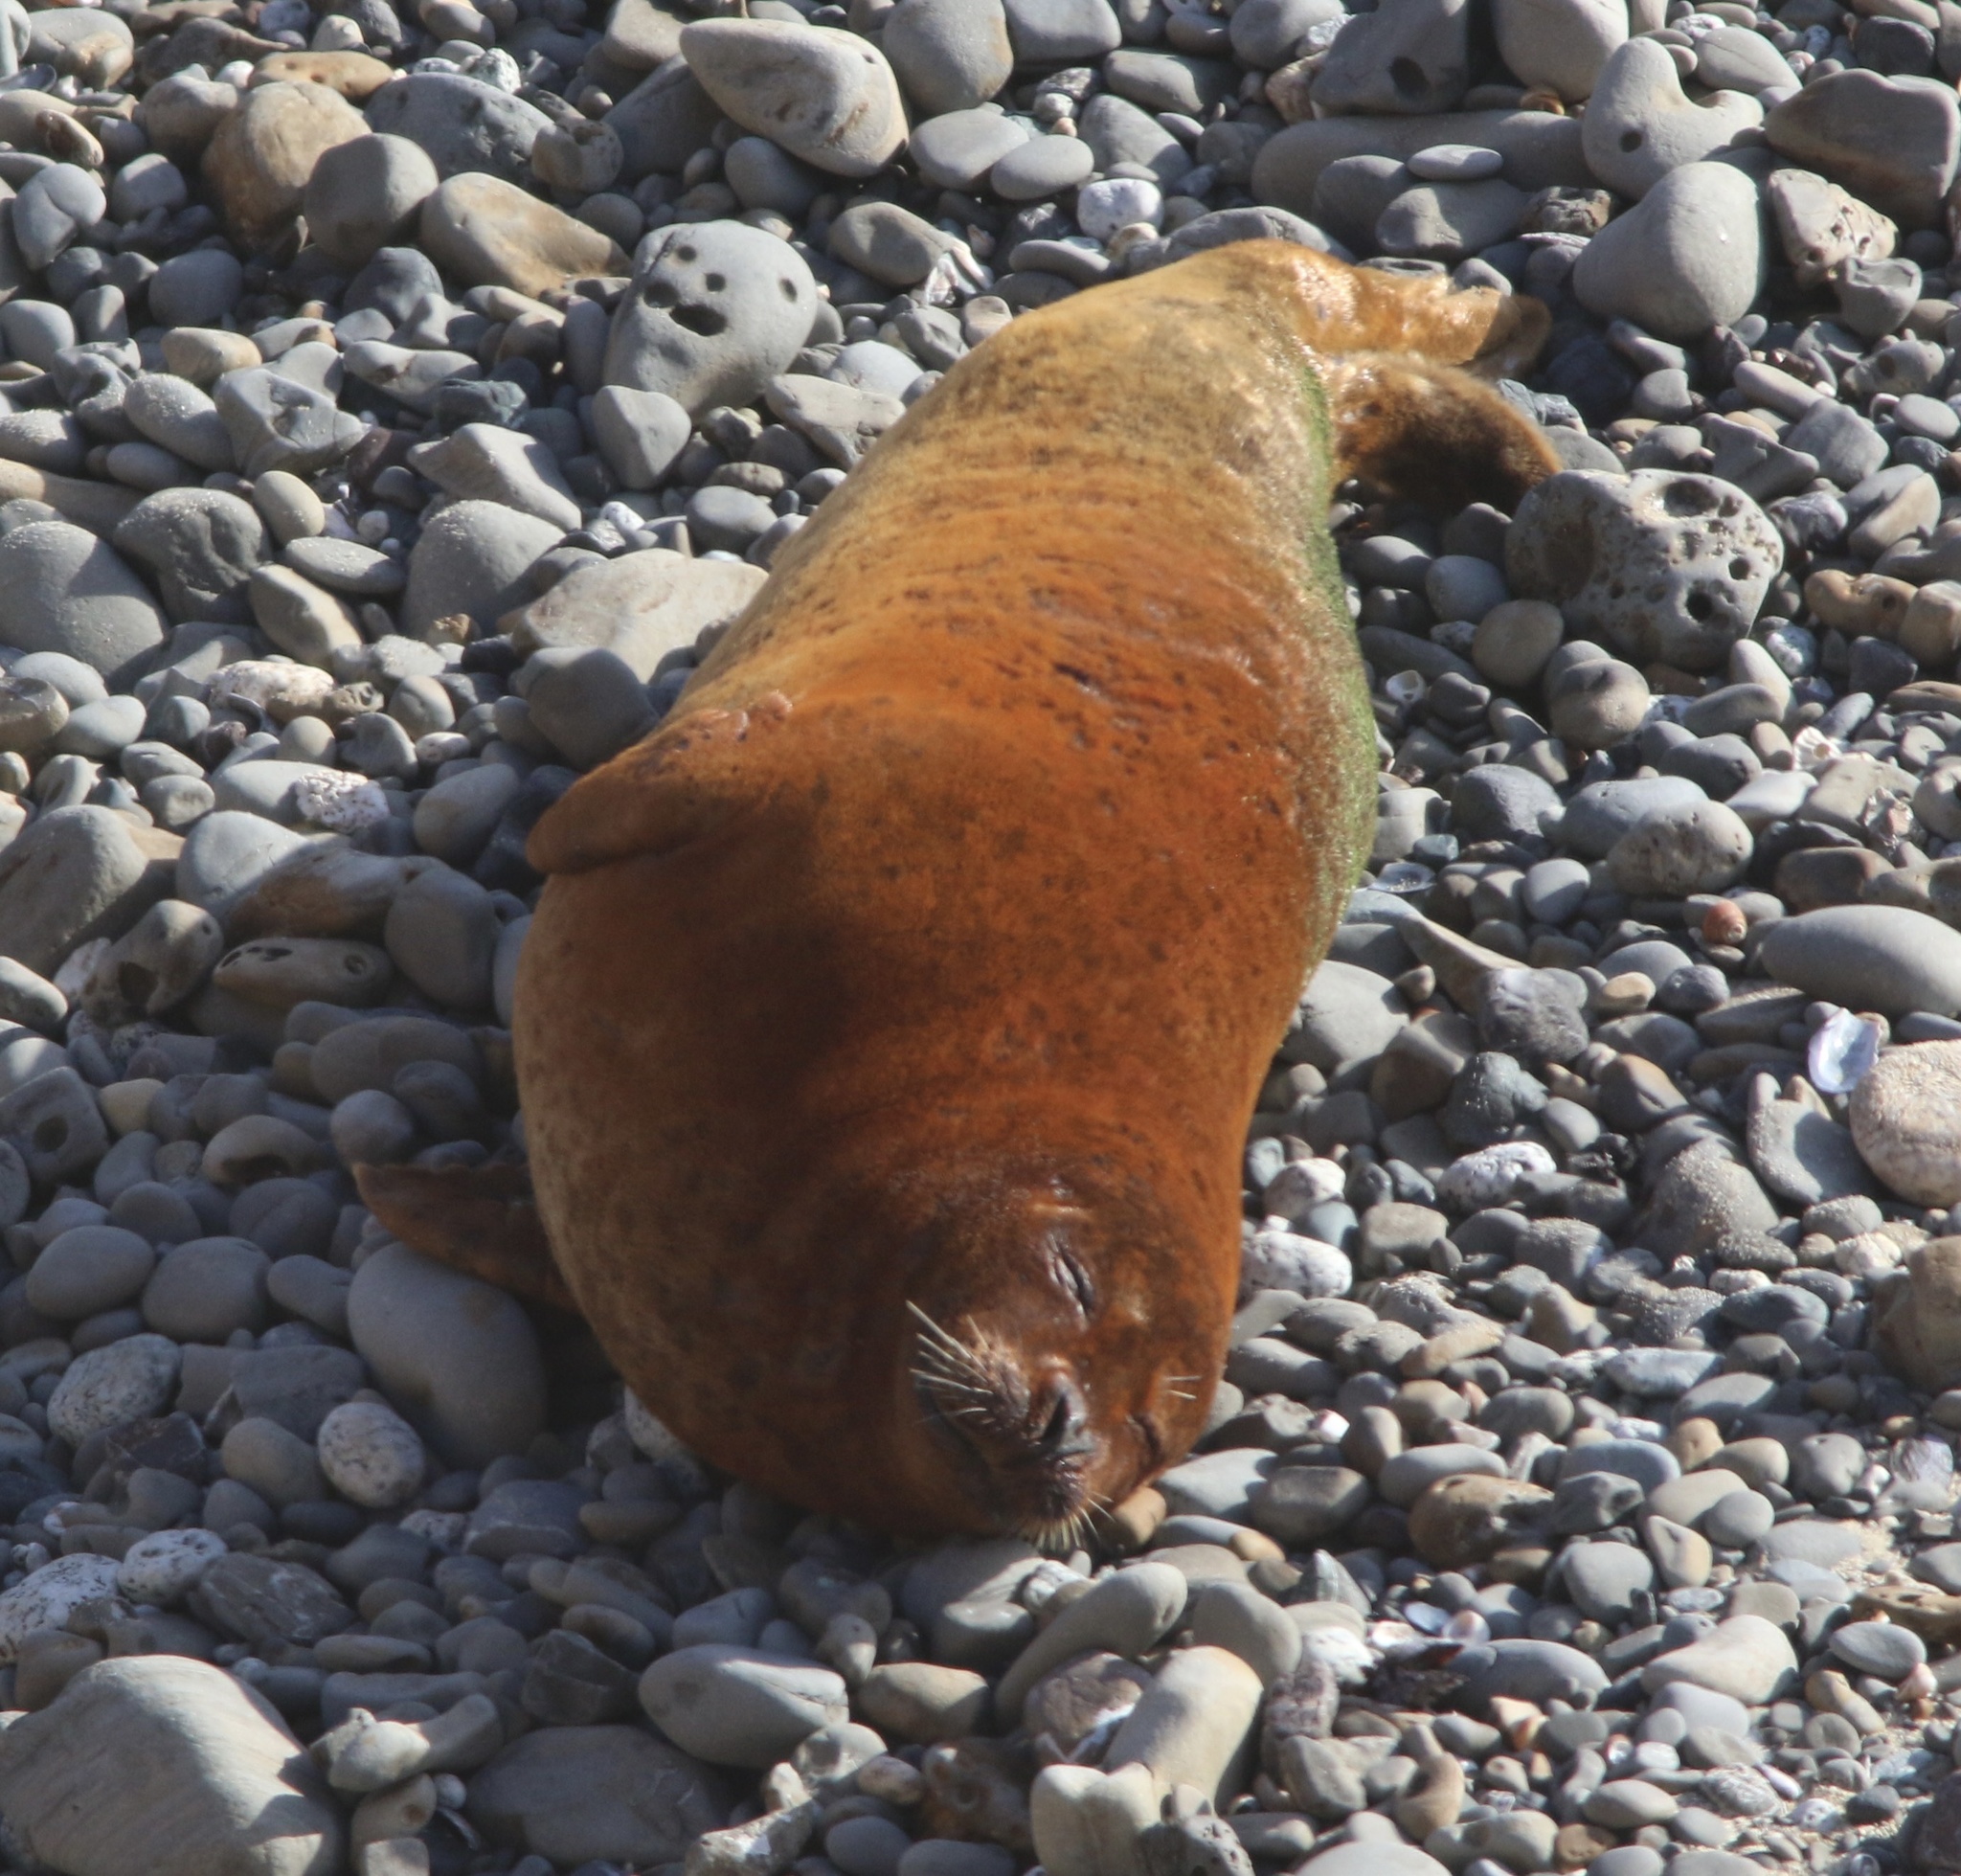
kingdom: Animalia
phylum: Chordata
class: Mammalia
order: Carnivora
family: Phocidae
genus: Phoca
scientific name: Phoca vitulina
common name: Harbor seal
